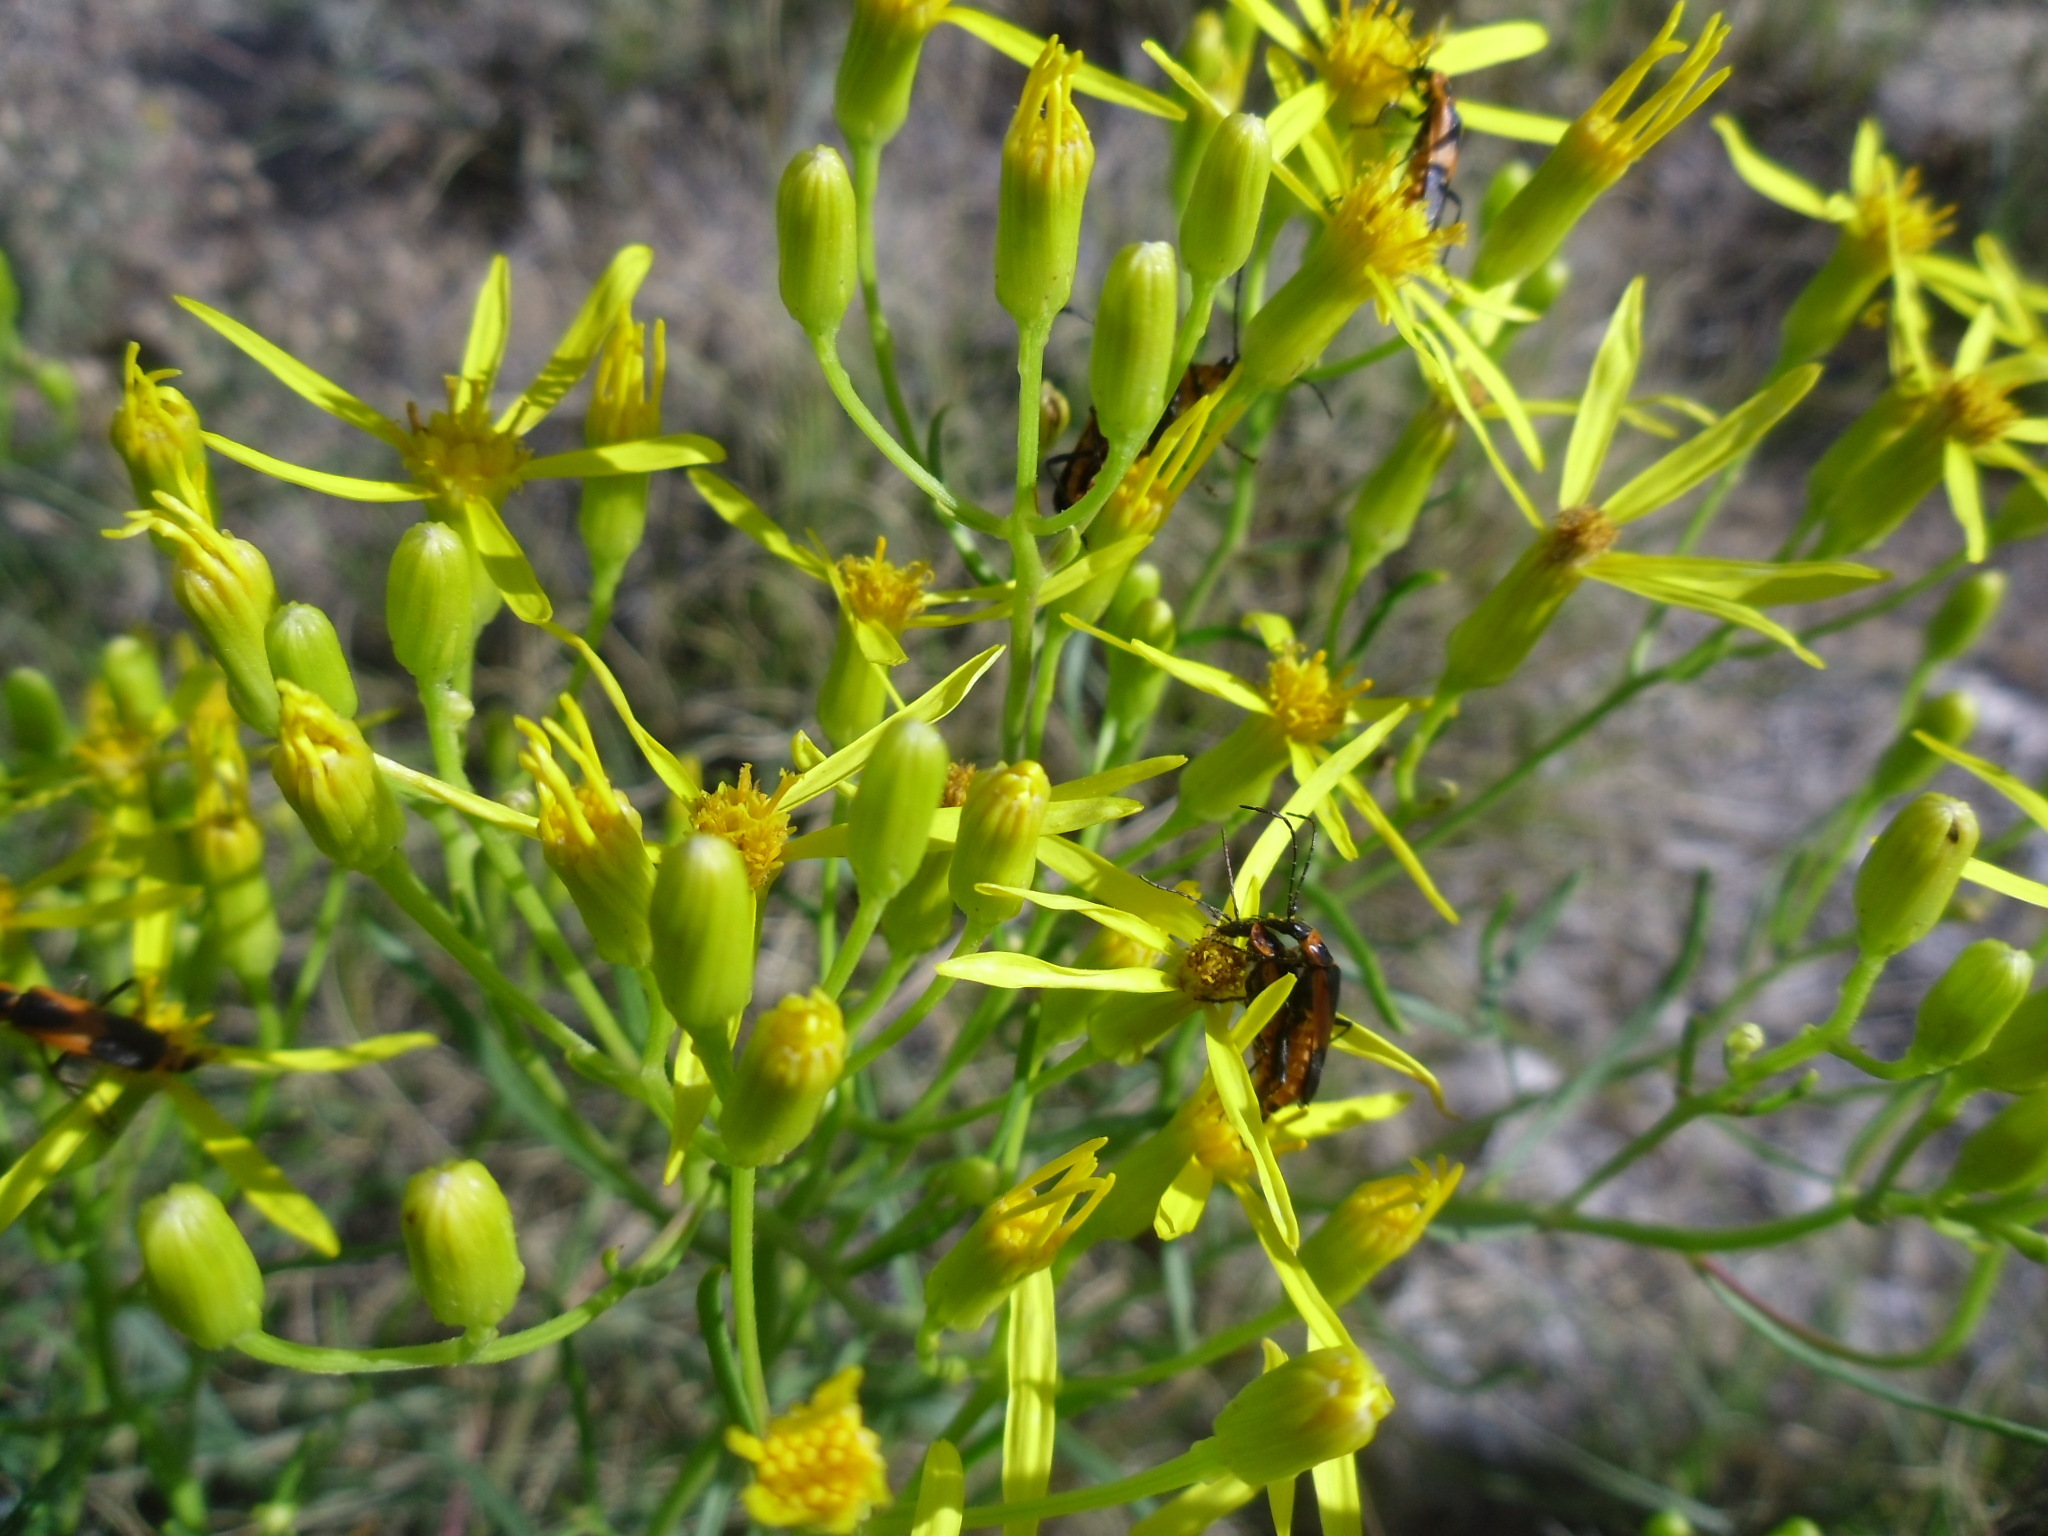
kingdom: Animalia
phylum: Arthropoda
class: Insecta
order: Coleoptera
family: Cantharidae
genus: Chauliognathus
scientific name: Chauliognathus basalis
